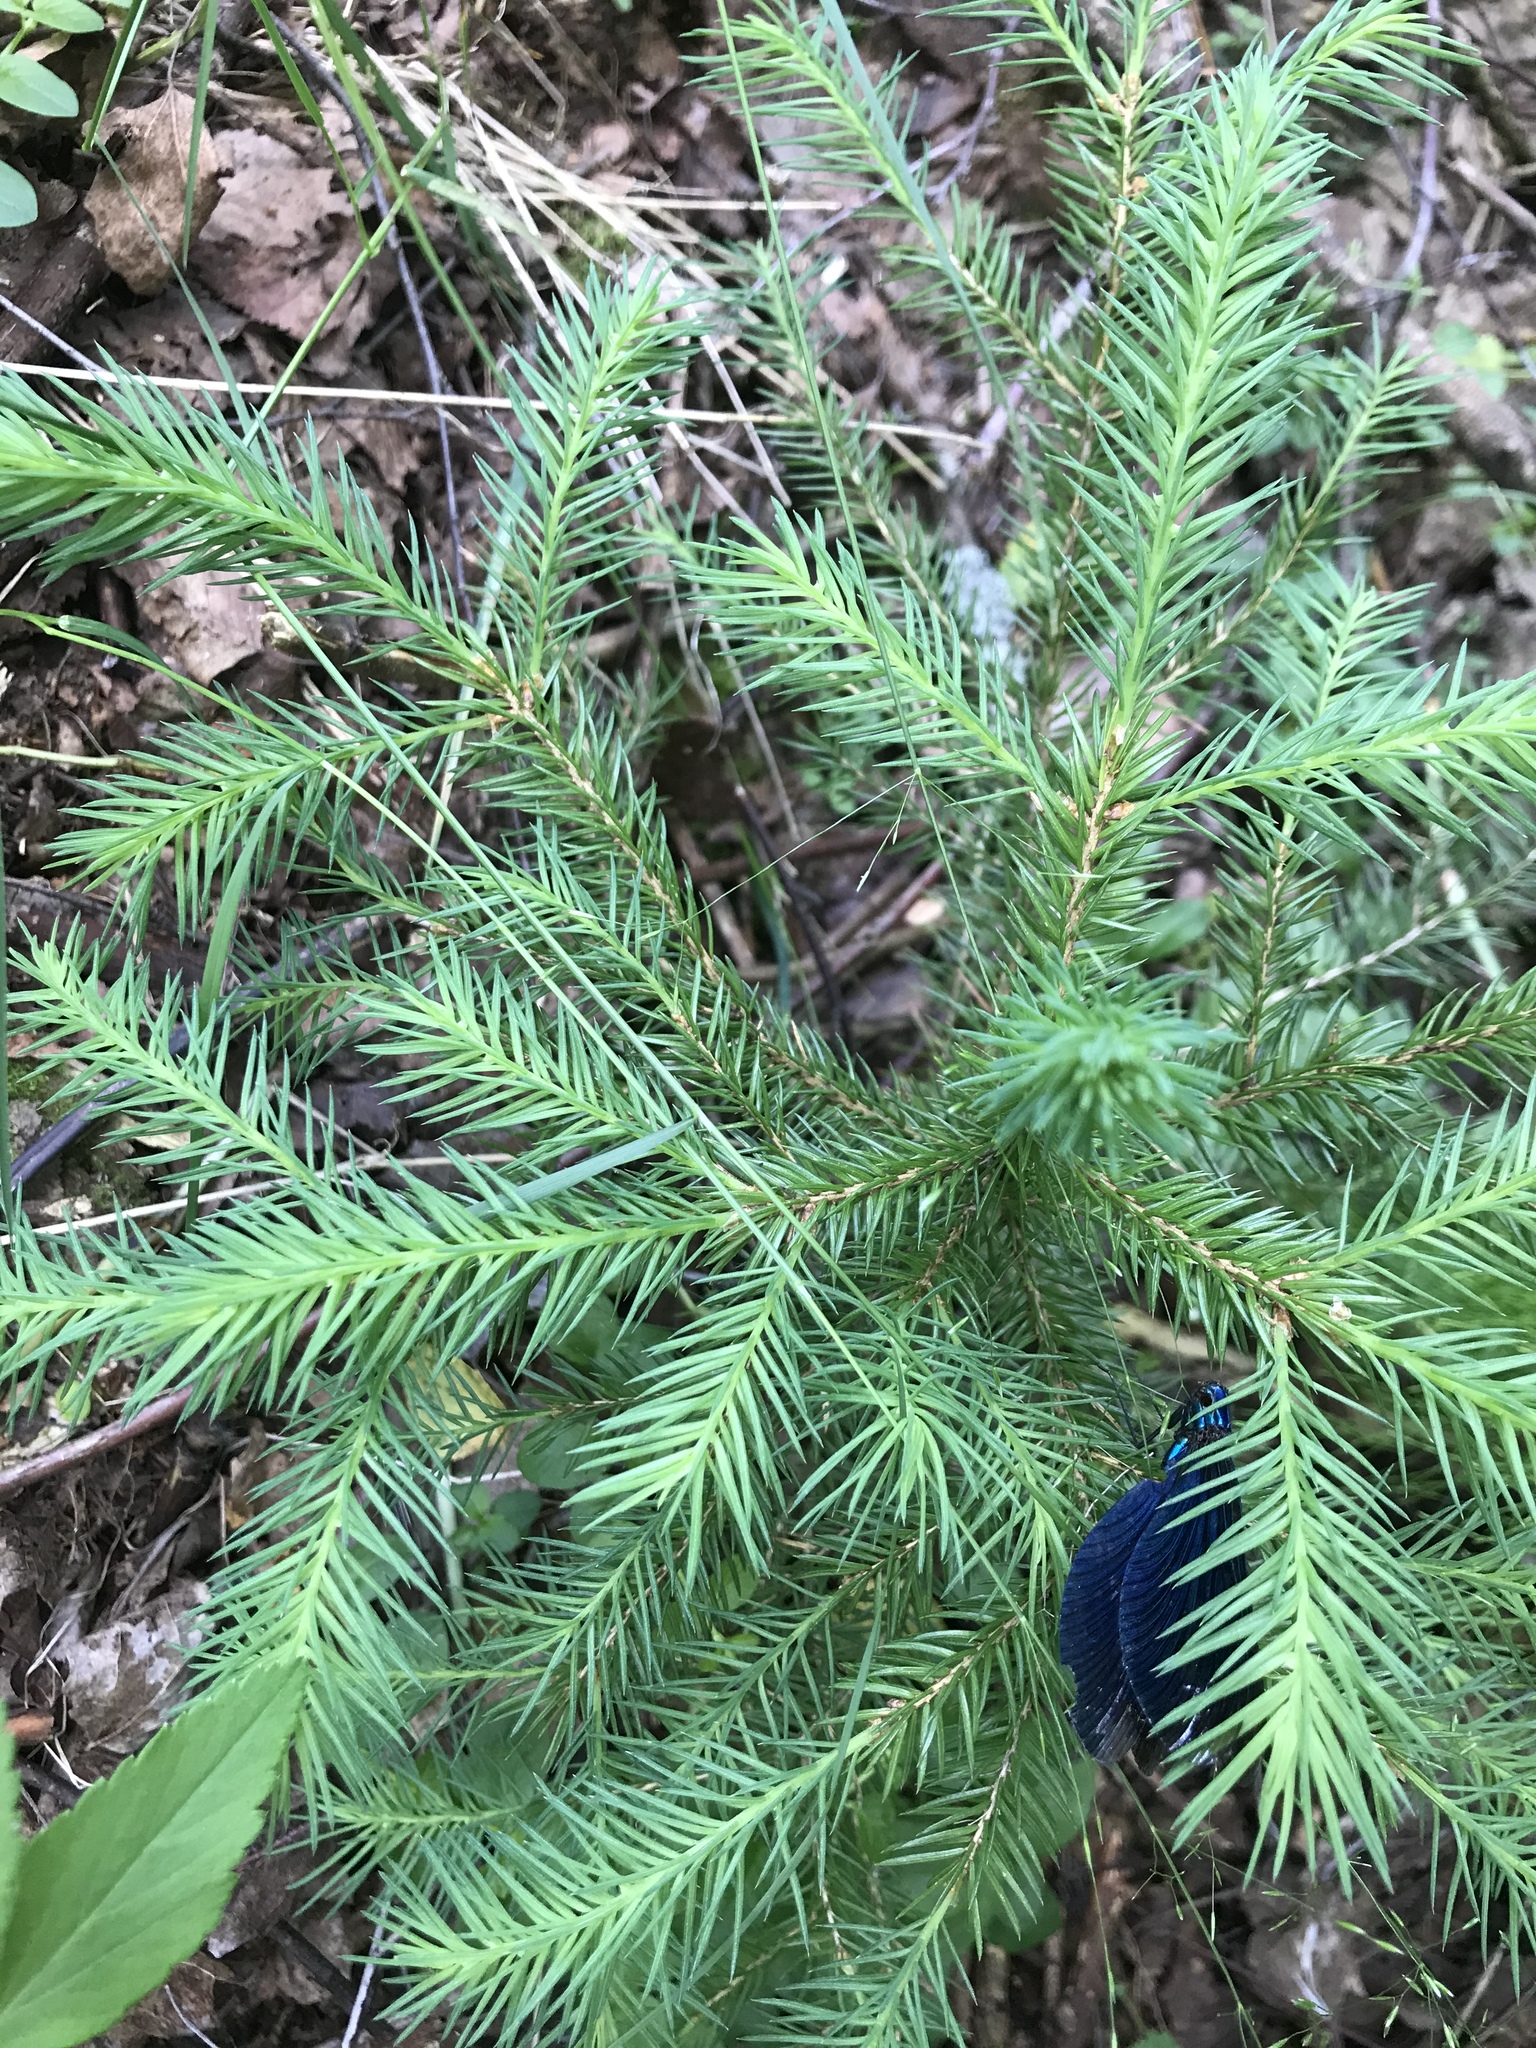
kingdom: Plantae
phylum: Tracheophyta
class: Pinopsida
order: Pinales
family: Pinaceae
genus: Picea
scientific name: Picea abies
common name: Norway spruce
